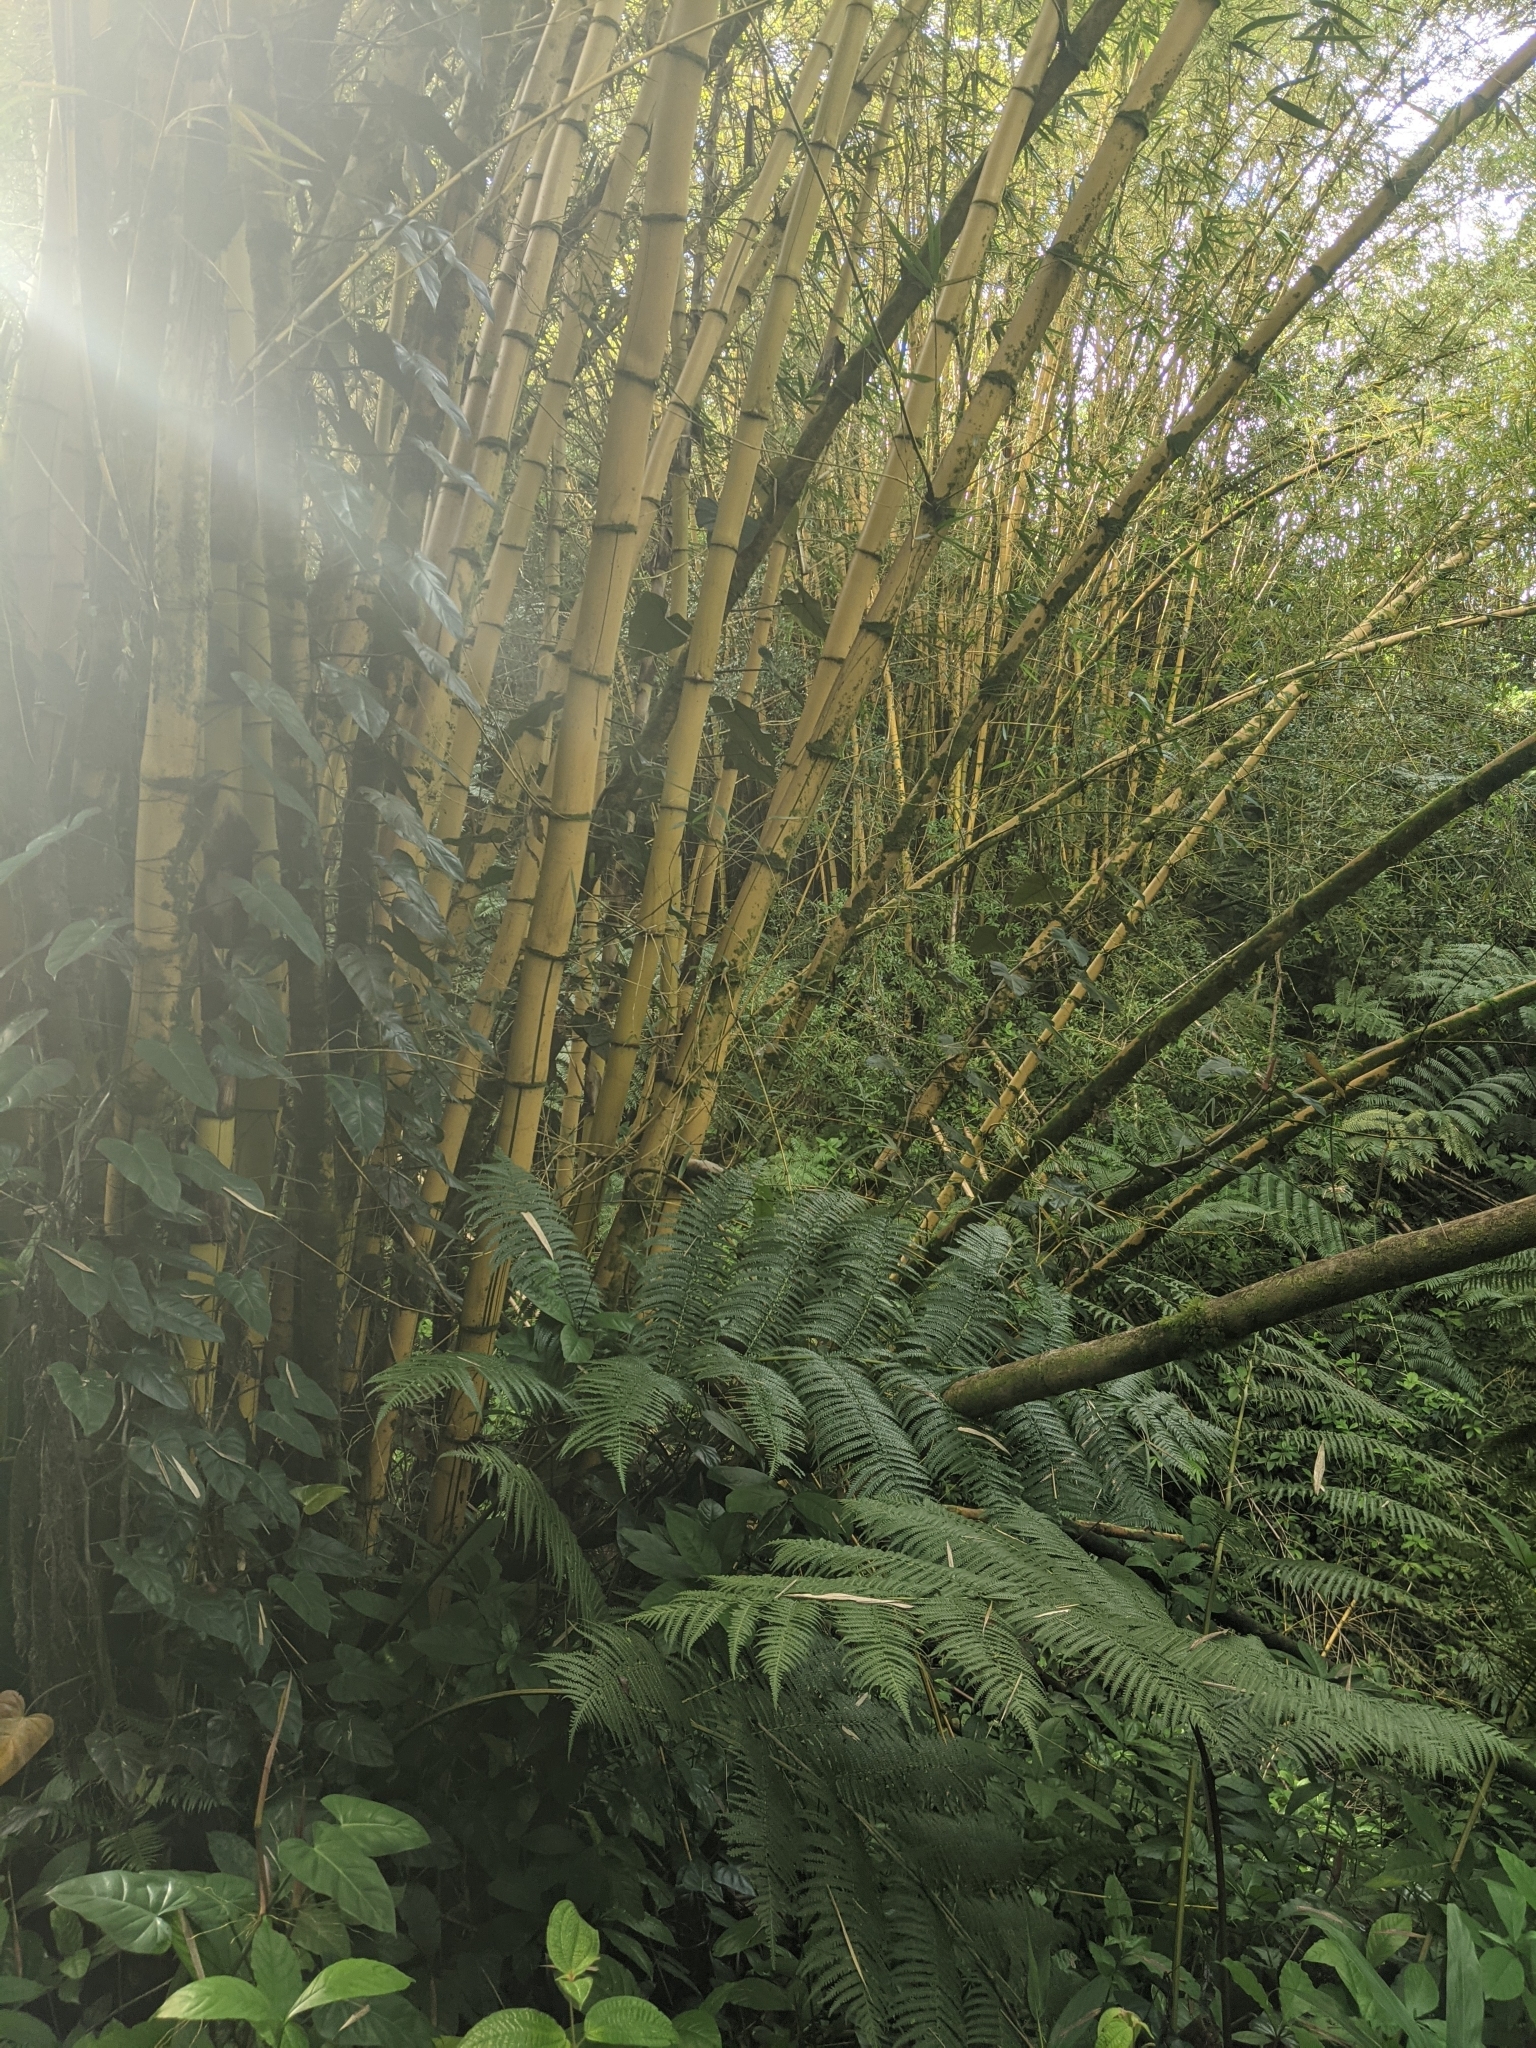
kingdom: Plantae
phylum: Tracheophyta
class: Liliopsida
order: Poales
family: Poaceae
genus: Bambusa
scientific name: Bambusa vulgaris
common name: Common bamboo
